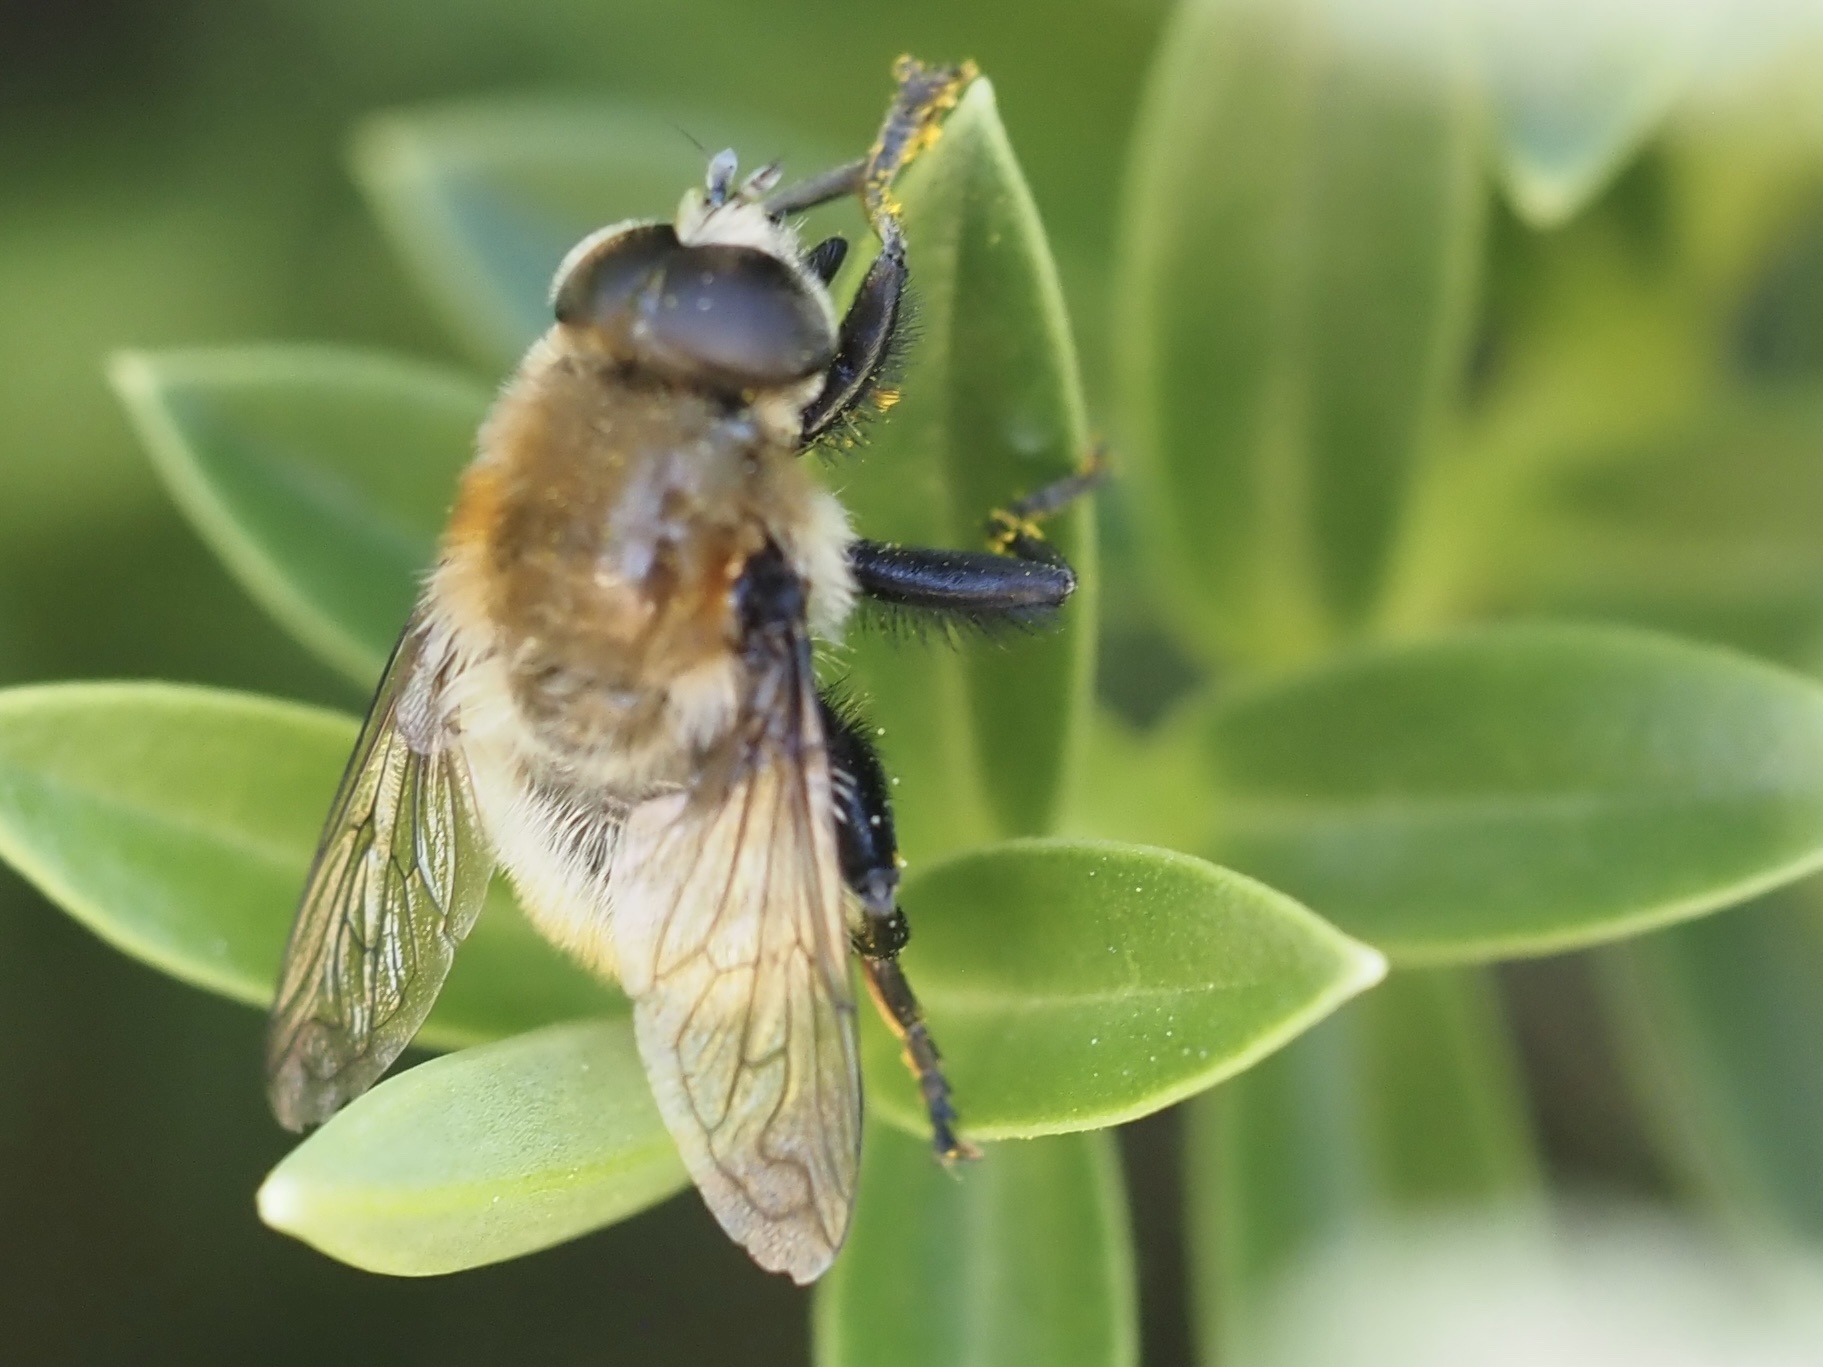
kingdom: Animalia
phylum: Arthropoda
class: Insecta
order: Diptera
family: Syrphidae
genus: Merodon
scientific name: Merodon equestris
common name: Greater bulb-fly
